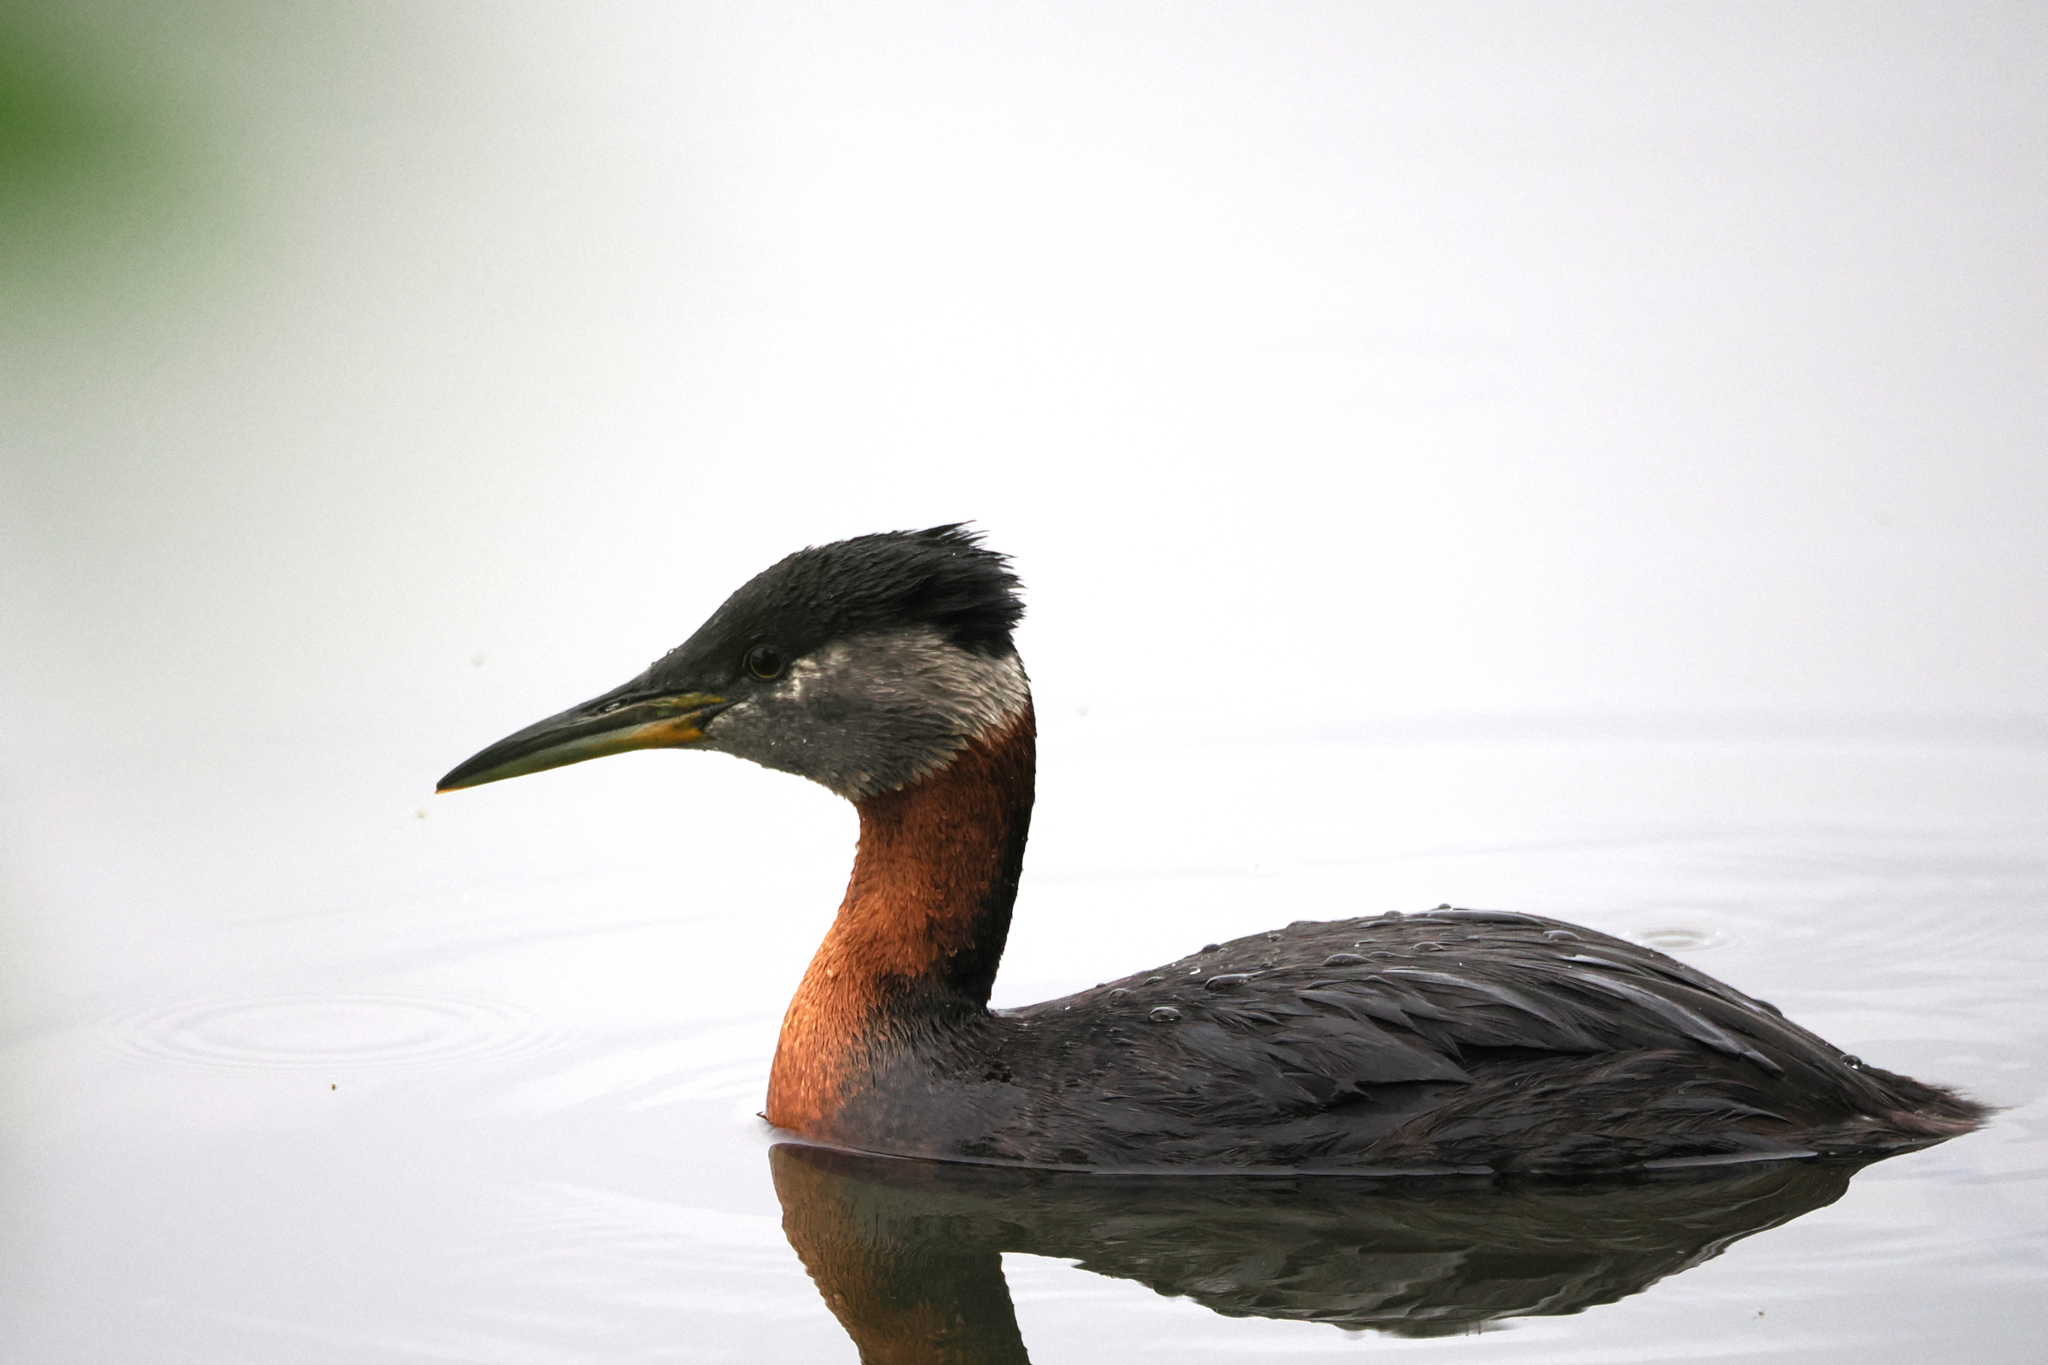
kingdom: Animalia
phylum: Chordata
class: Aves
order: Podicipediformes
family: Podicipedidae
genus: Podiceps
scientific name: Podiceps grisegena
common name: Red-necked grebe
